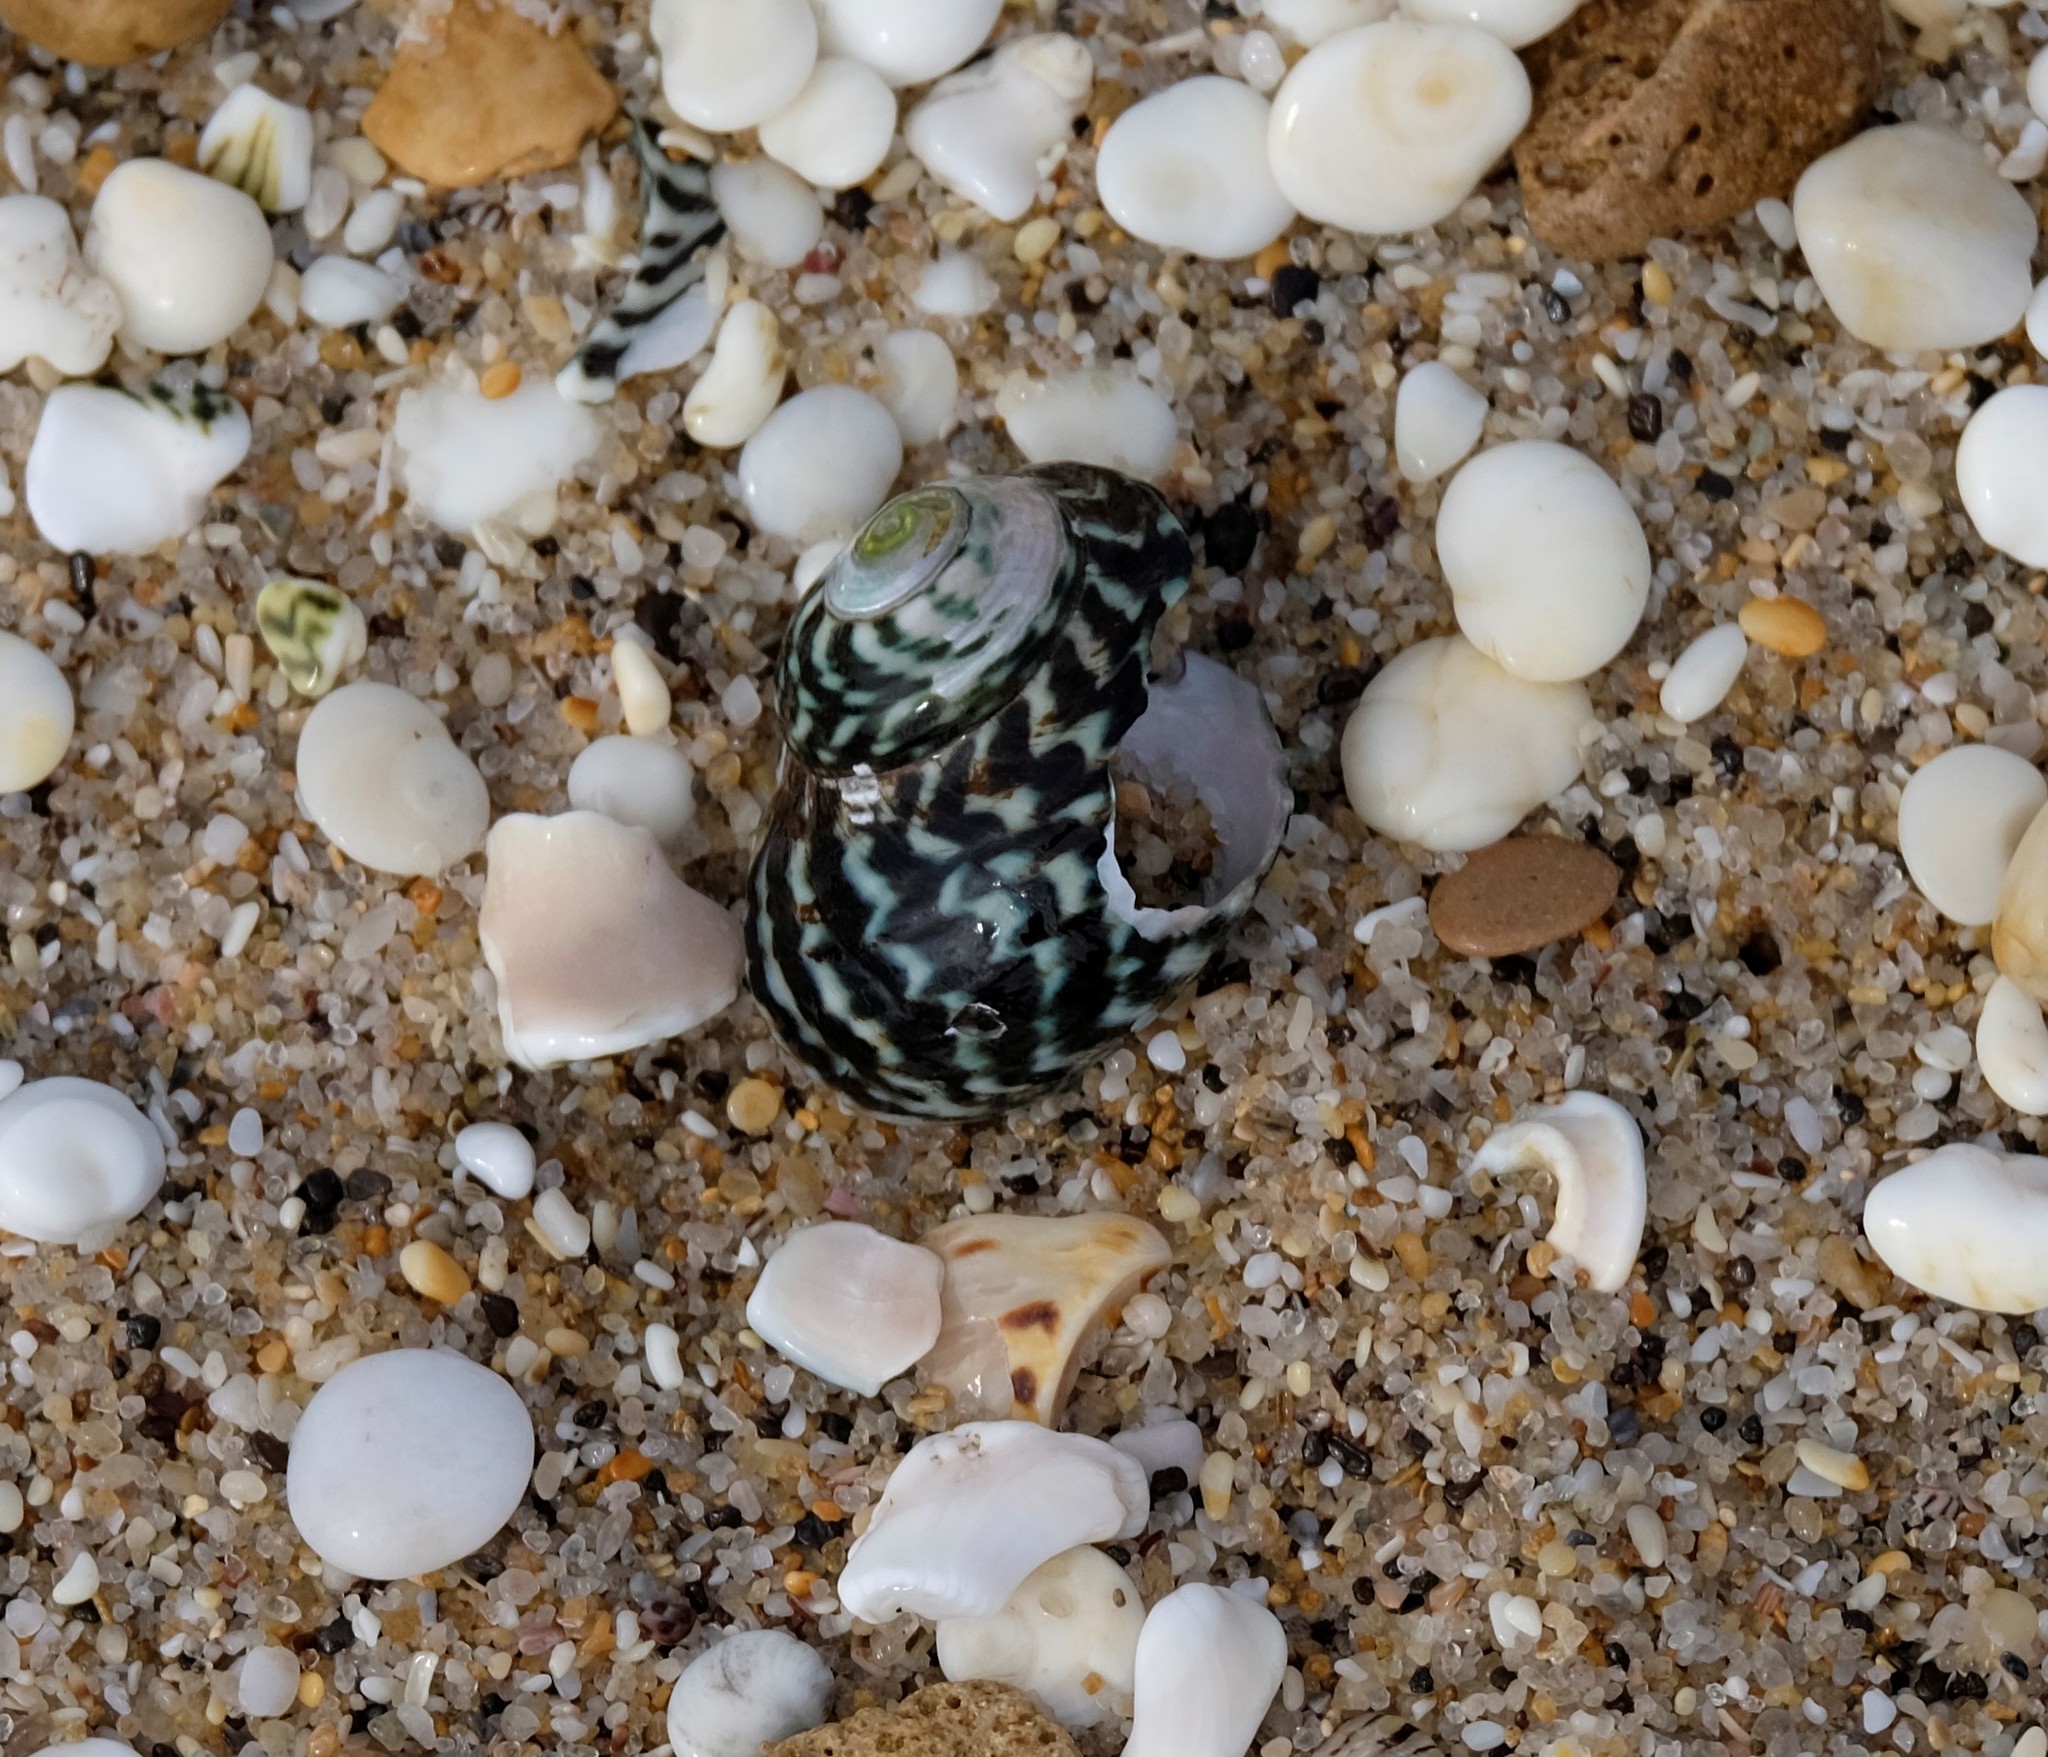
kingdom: Animalia
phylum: Mollusca
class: Gastropoda
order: Trochida
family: Turbinidae
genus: Lunella
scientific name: Lunella undulata
